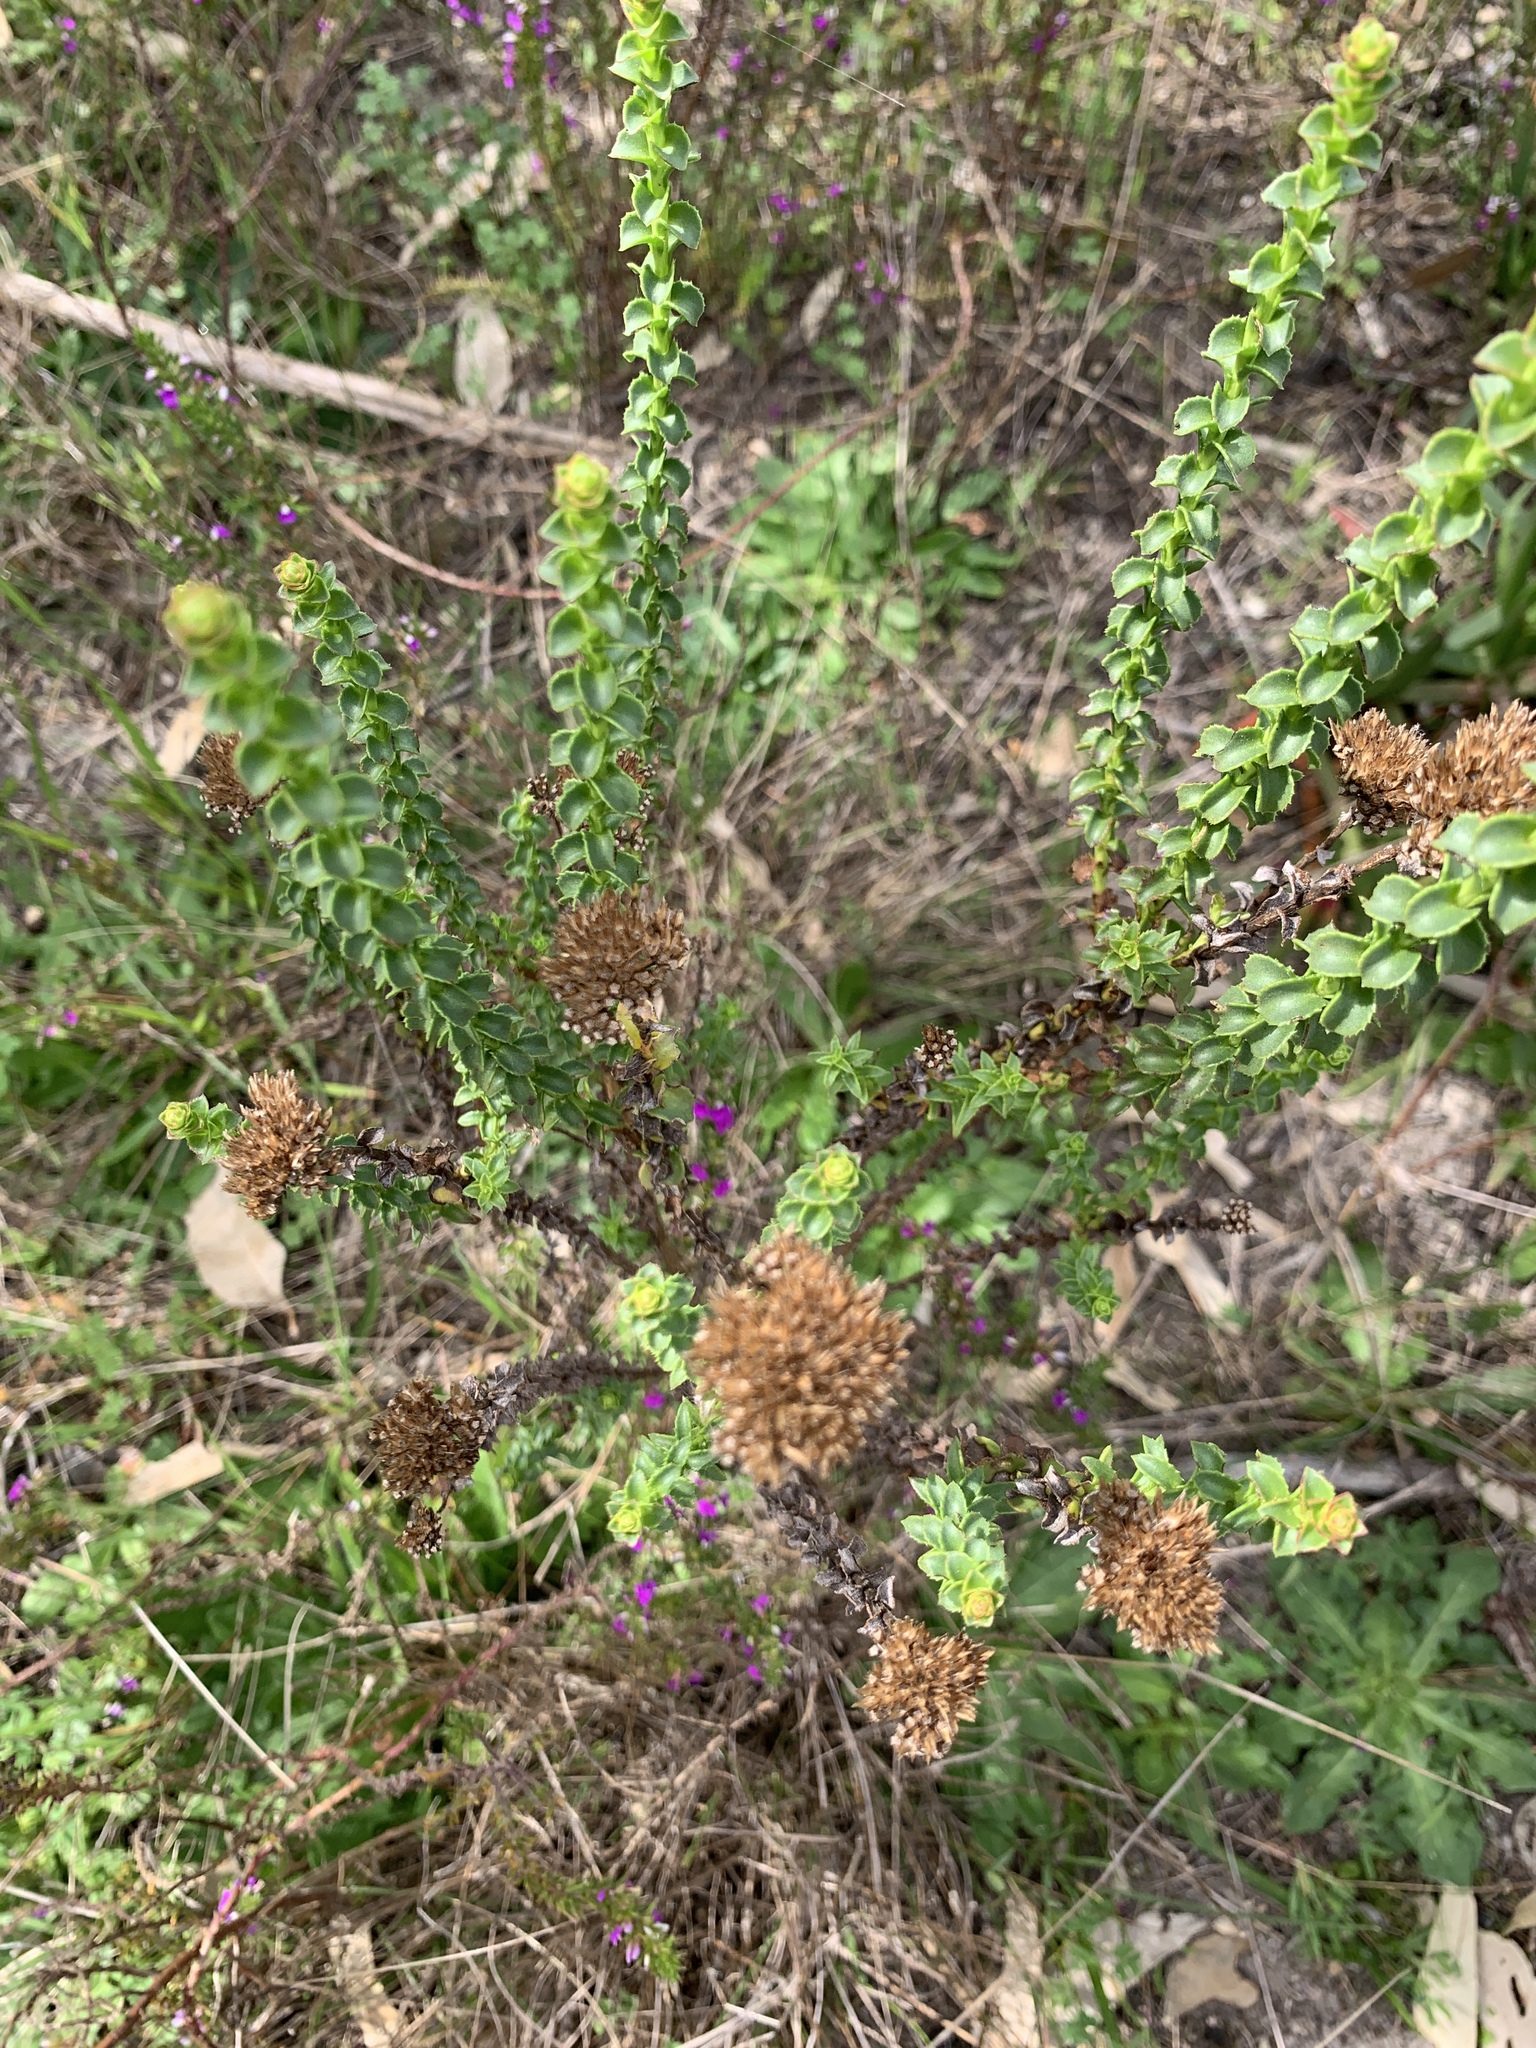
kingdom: Plantae
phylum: Tracheophyta
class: Magnoliopsida
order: Asterales
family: Asteraceae
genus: Athanasia
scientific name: Athanasia dentata
